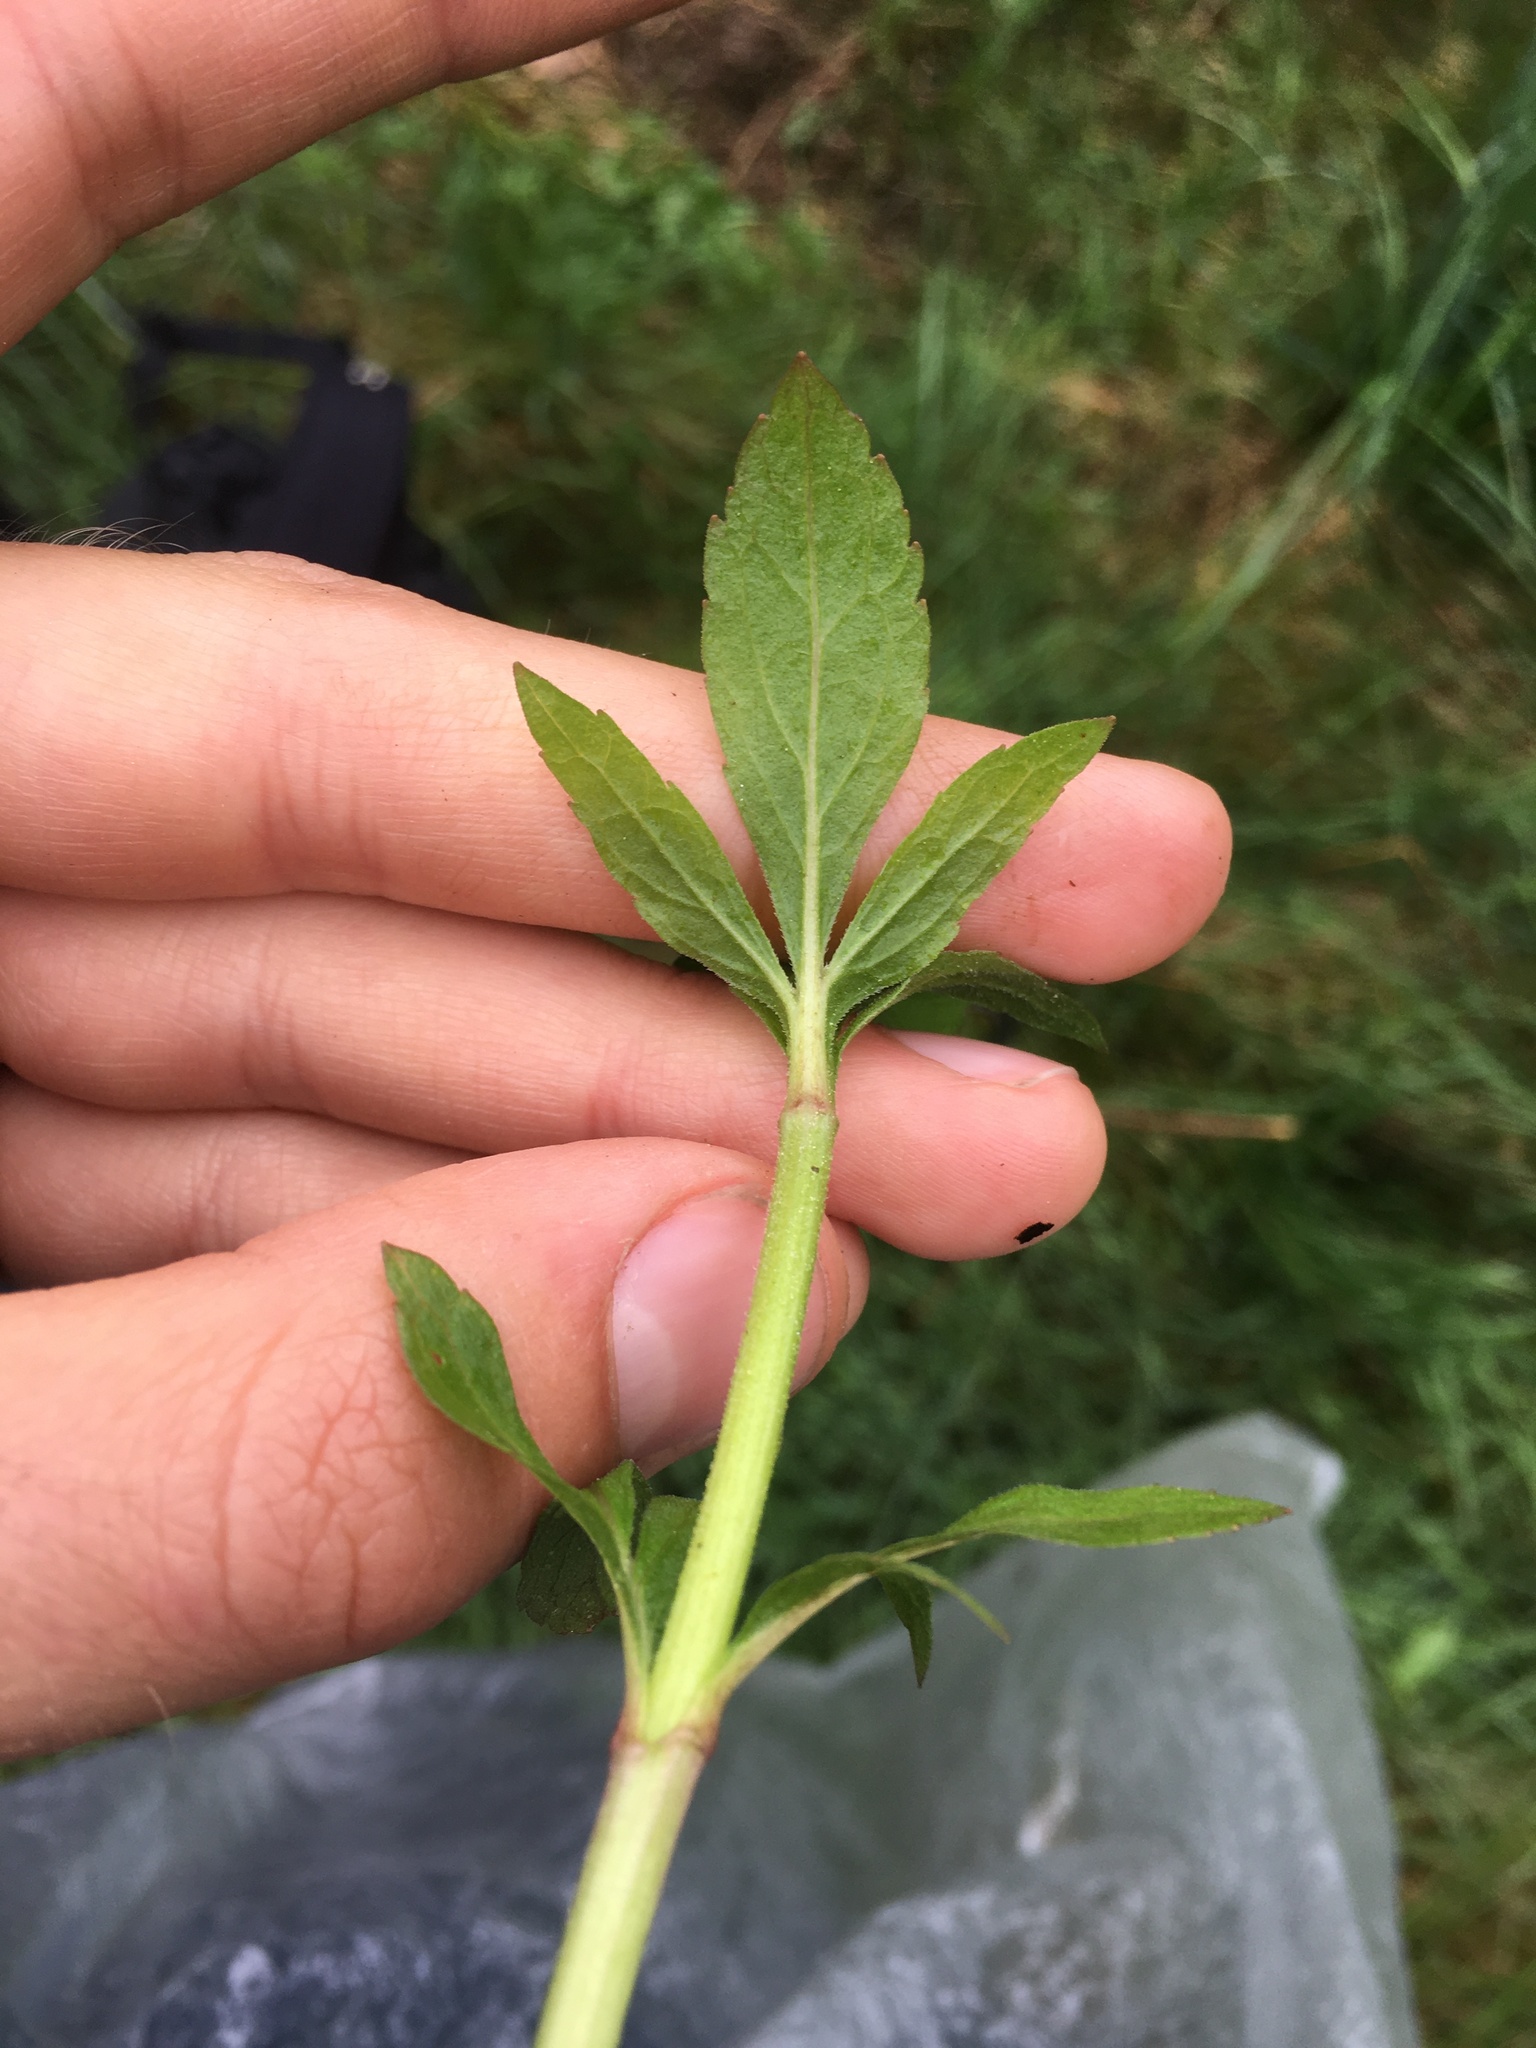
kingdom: Plantae
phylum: Tracheophyta
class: Magnoliopsida
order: Asterales
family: Asteraceae
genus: Eupatorium
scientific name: Eupatorium cannabinum
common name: Hemp-agrimony
